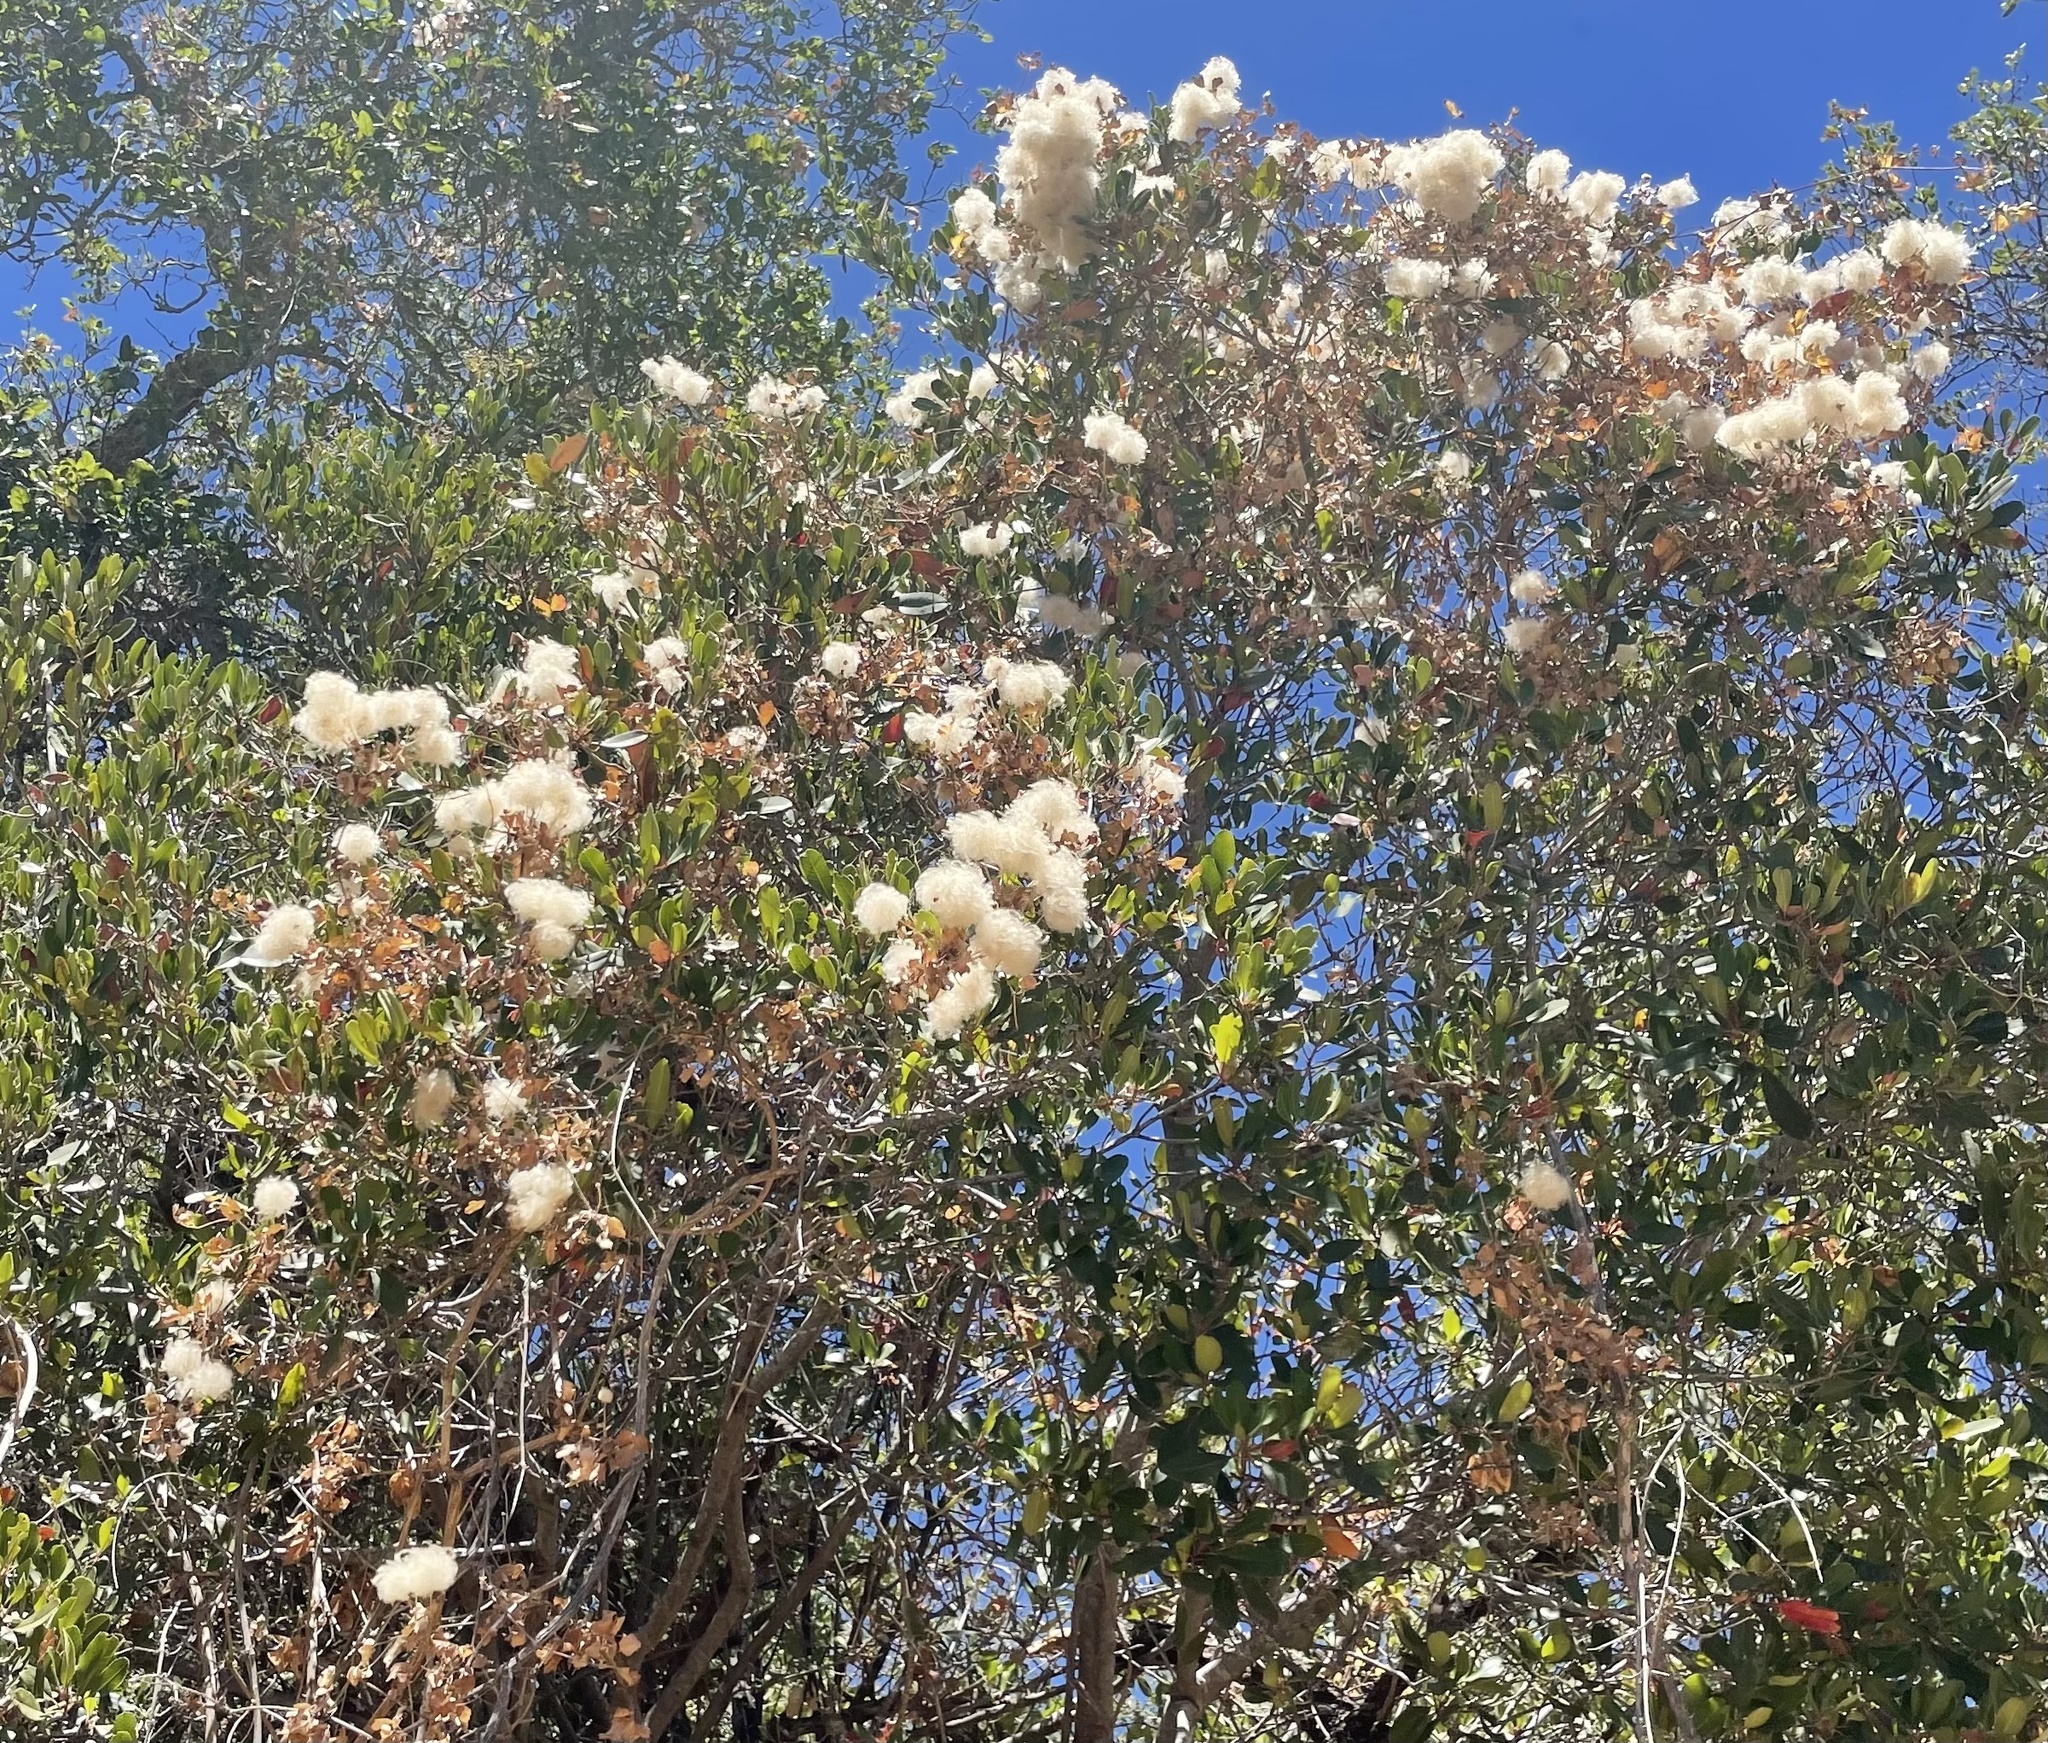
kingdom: Plantae
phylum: Tracheophyta
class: Magnoliopsida
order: Ranunculales
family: Ranunculaceae
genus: Clematis
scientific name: Clematis lasiantha
